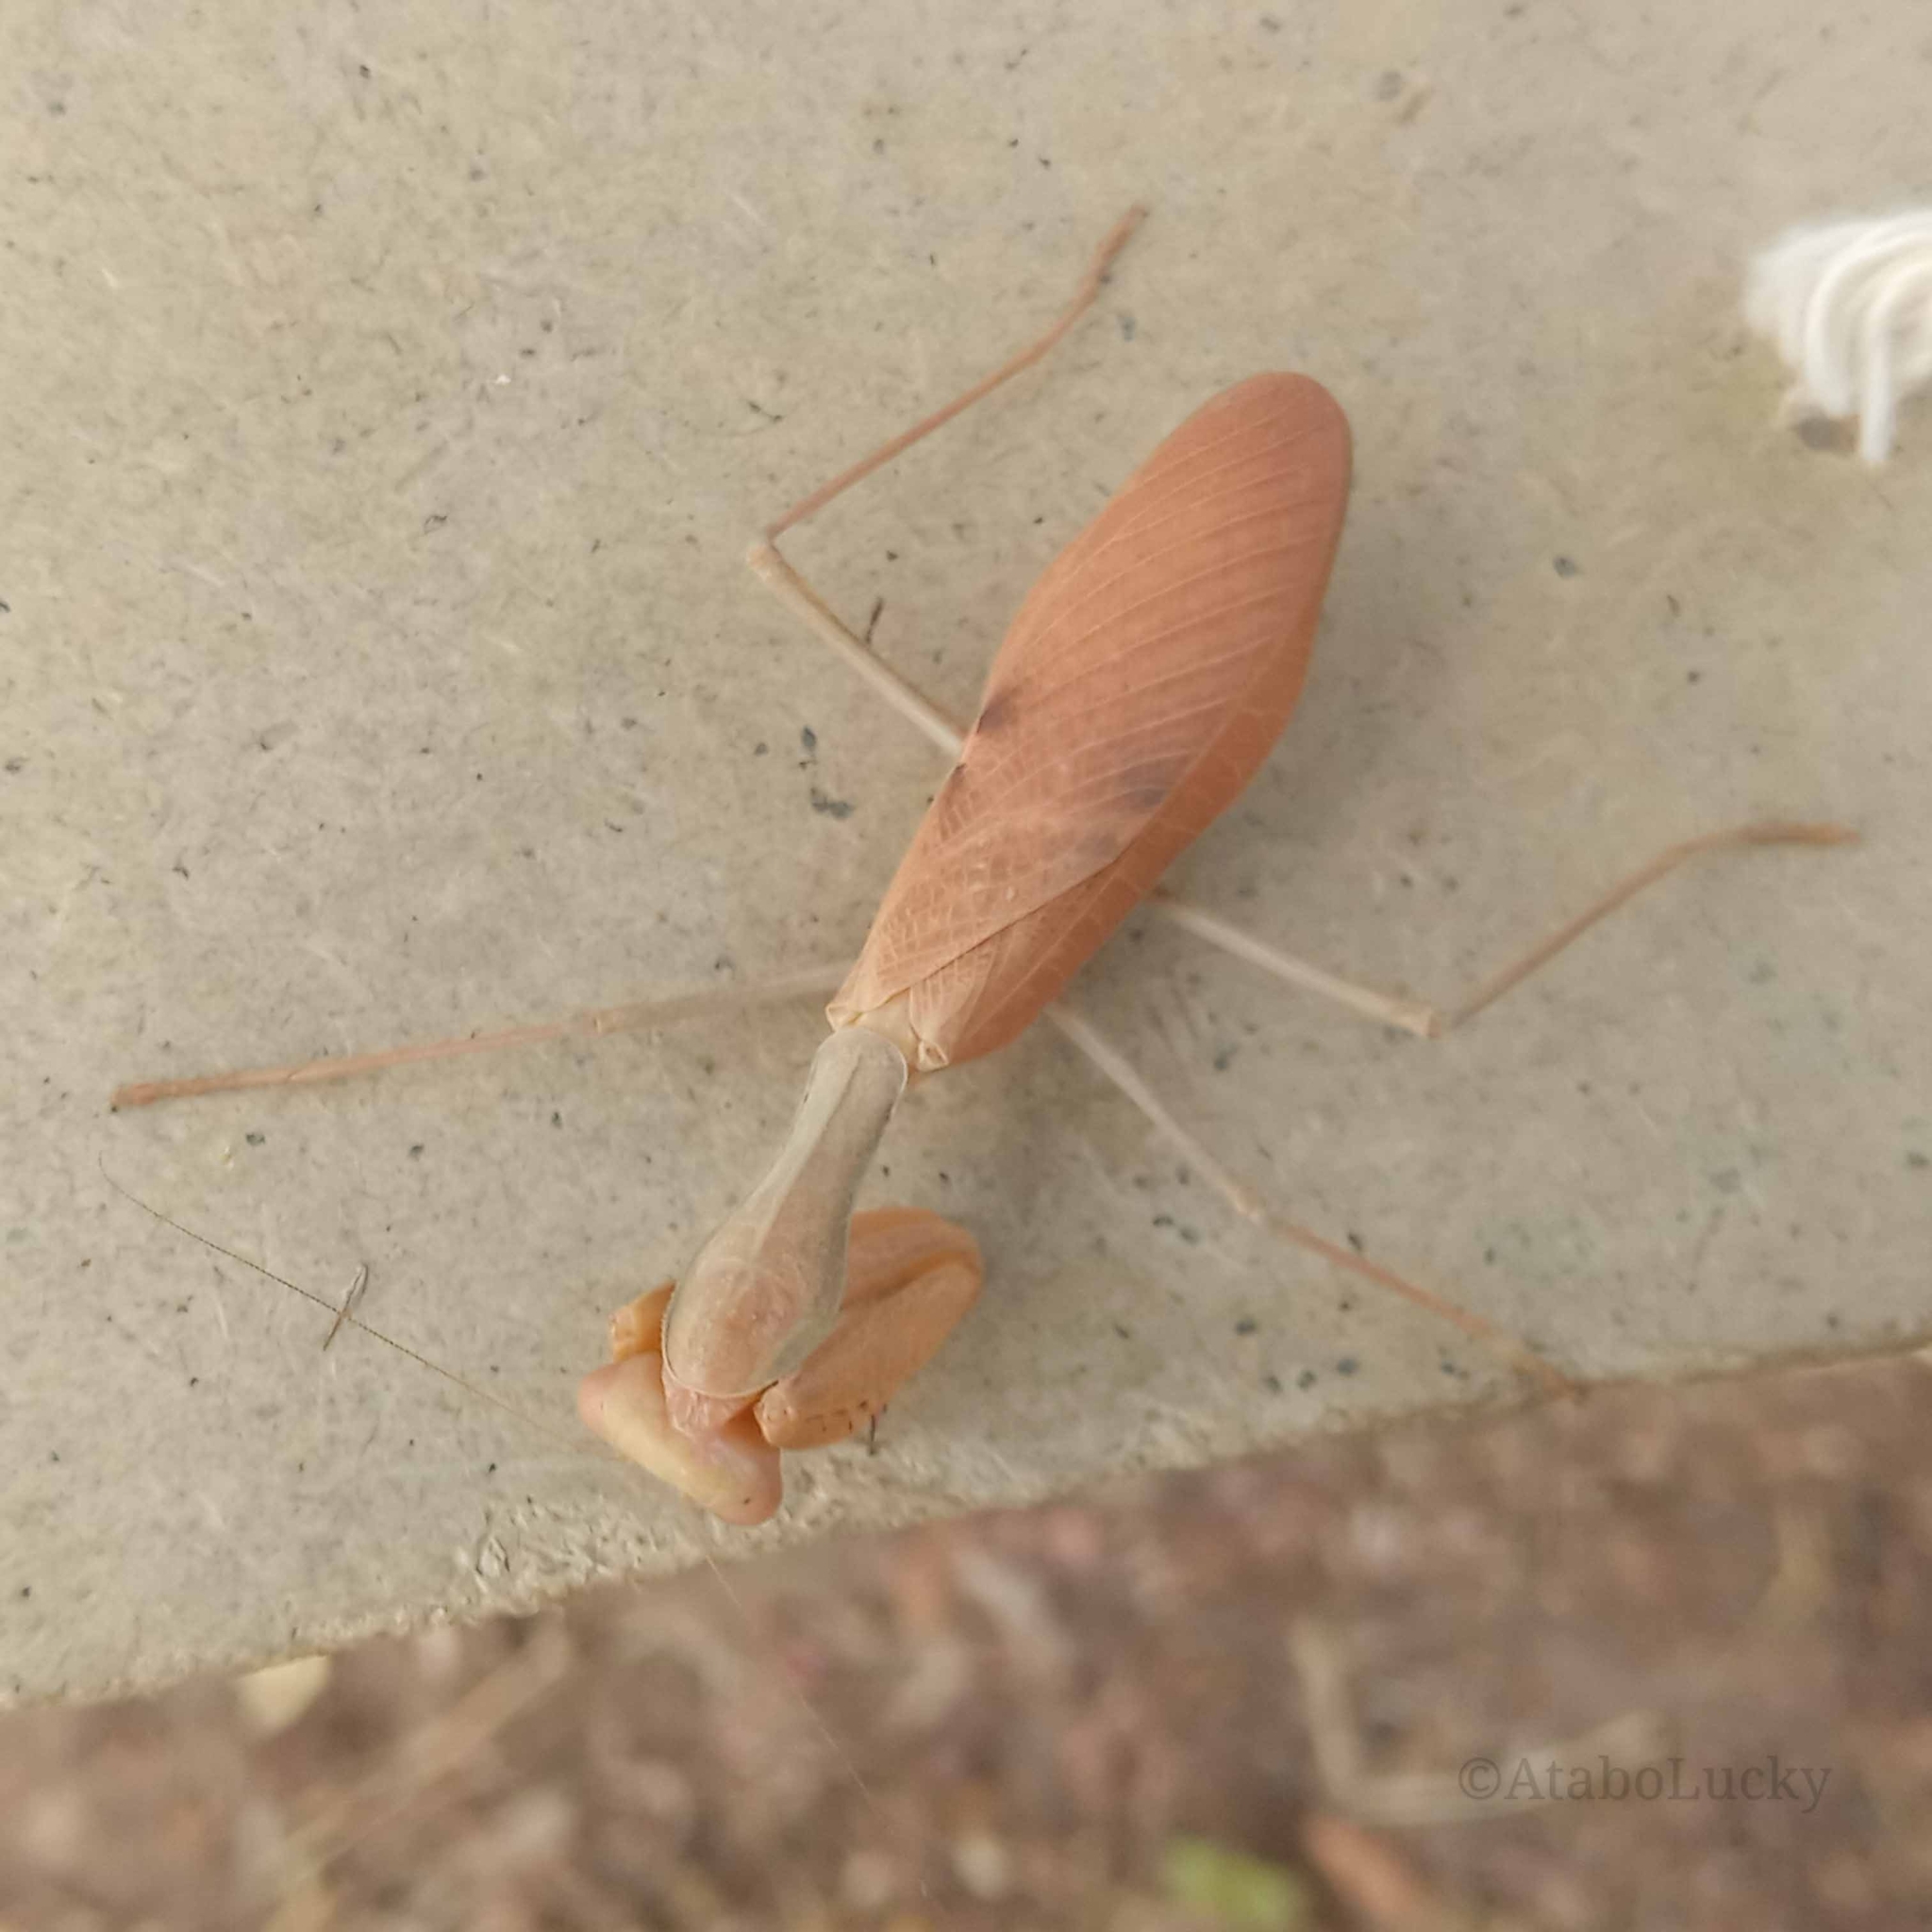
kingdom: Animalia
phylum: Arthropoda
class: Insecta
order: Mantodea
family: Mantidae
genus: Sphodromantis
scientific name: Sphodromantis lineola
